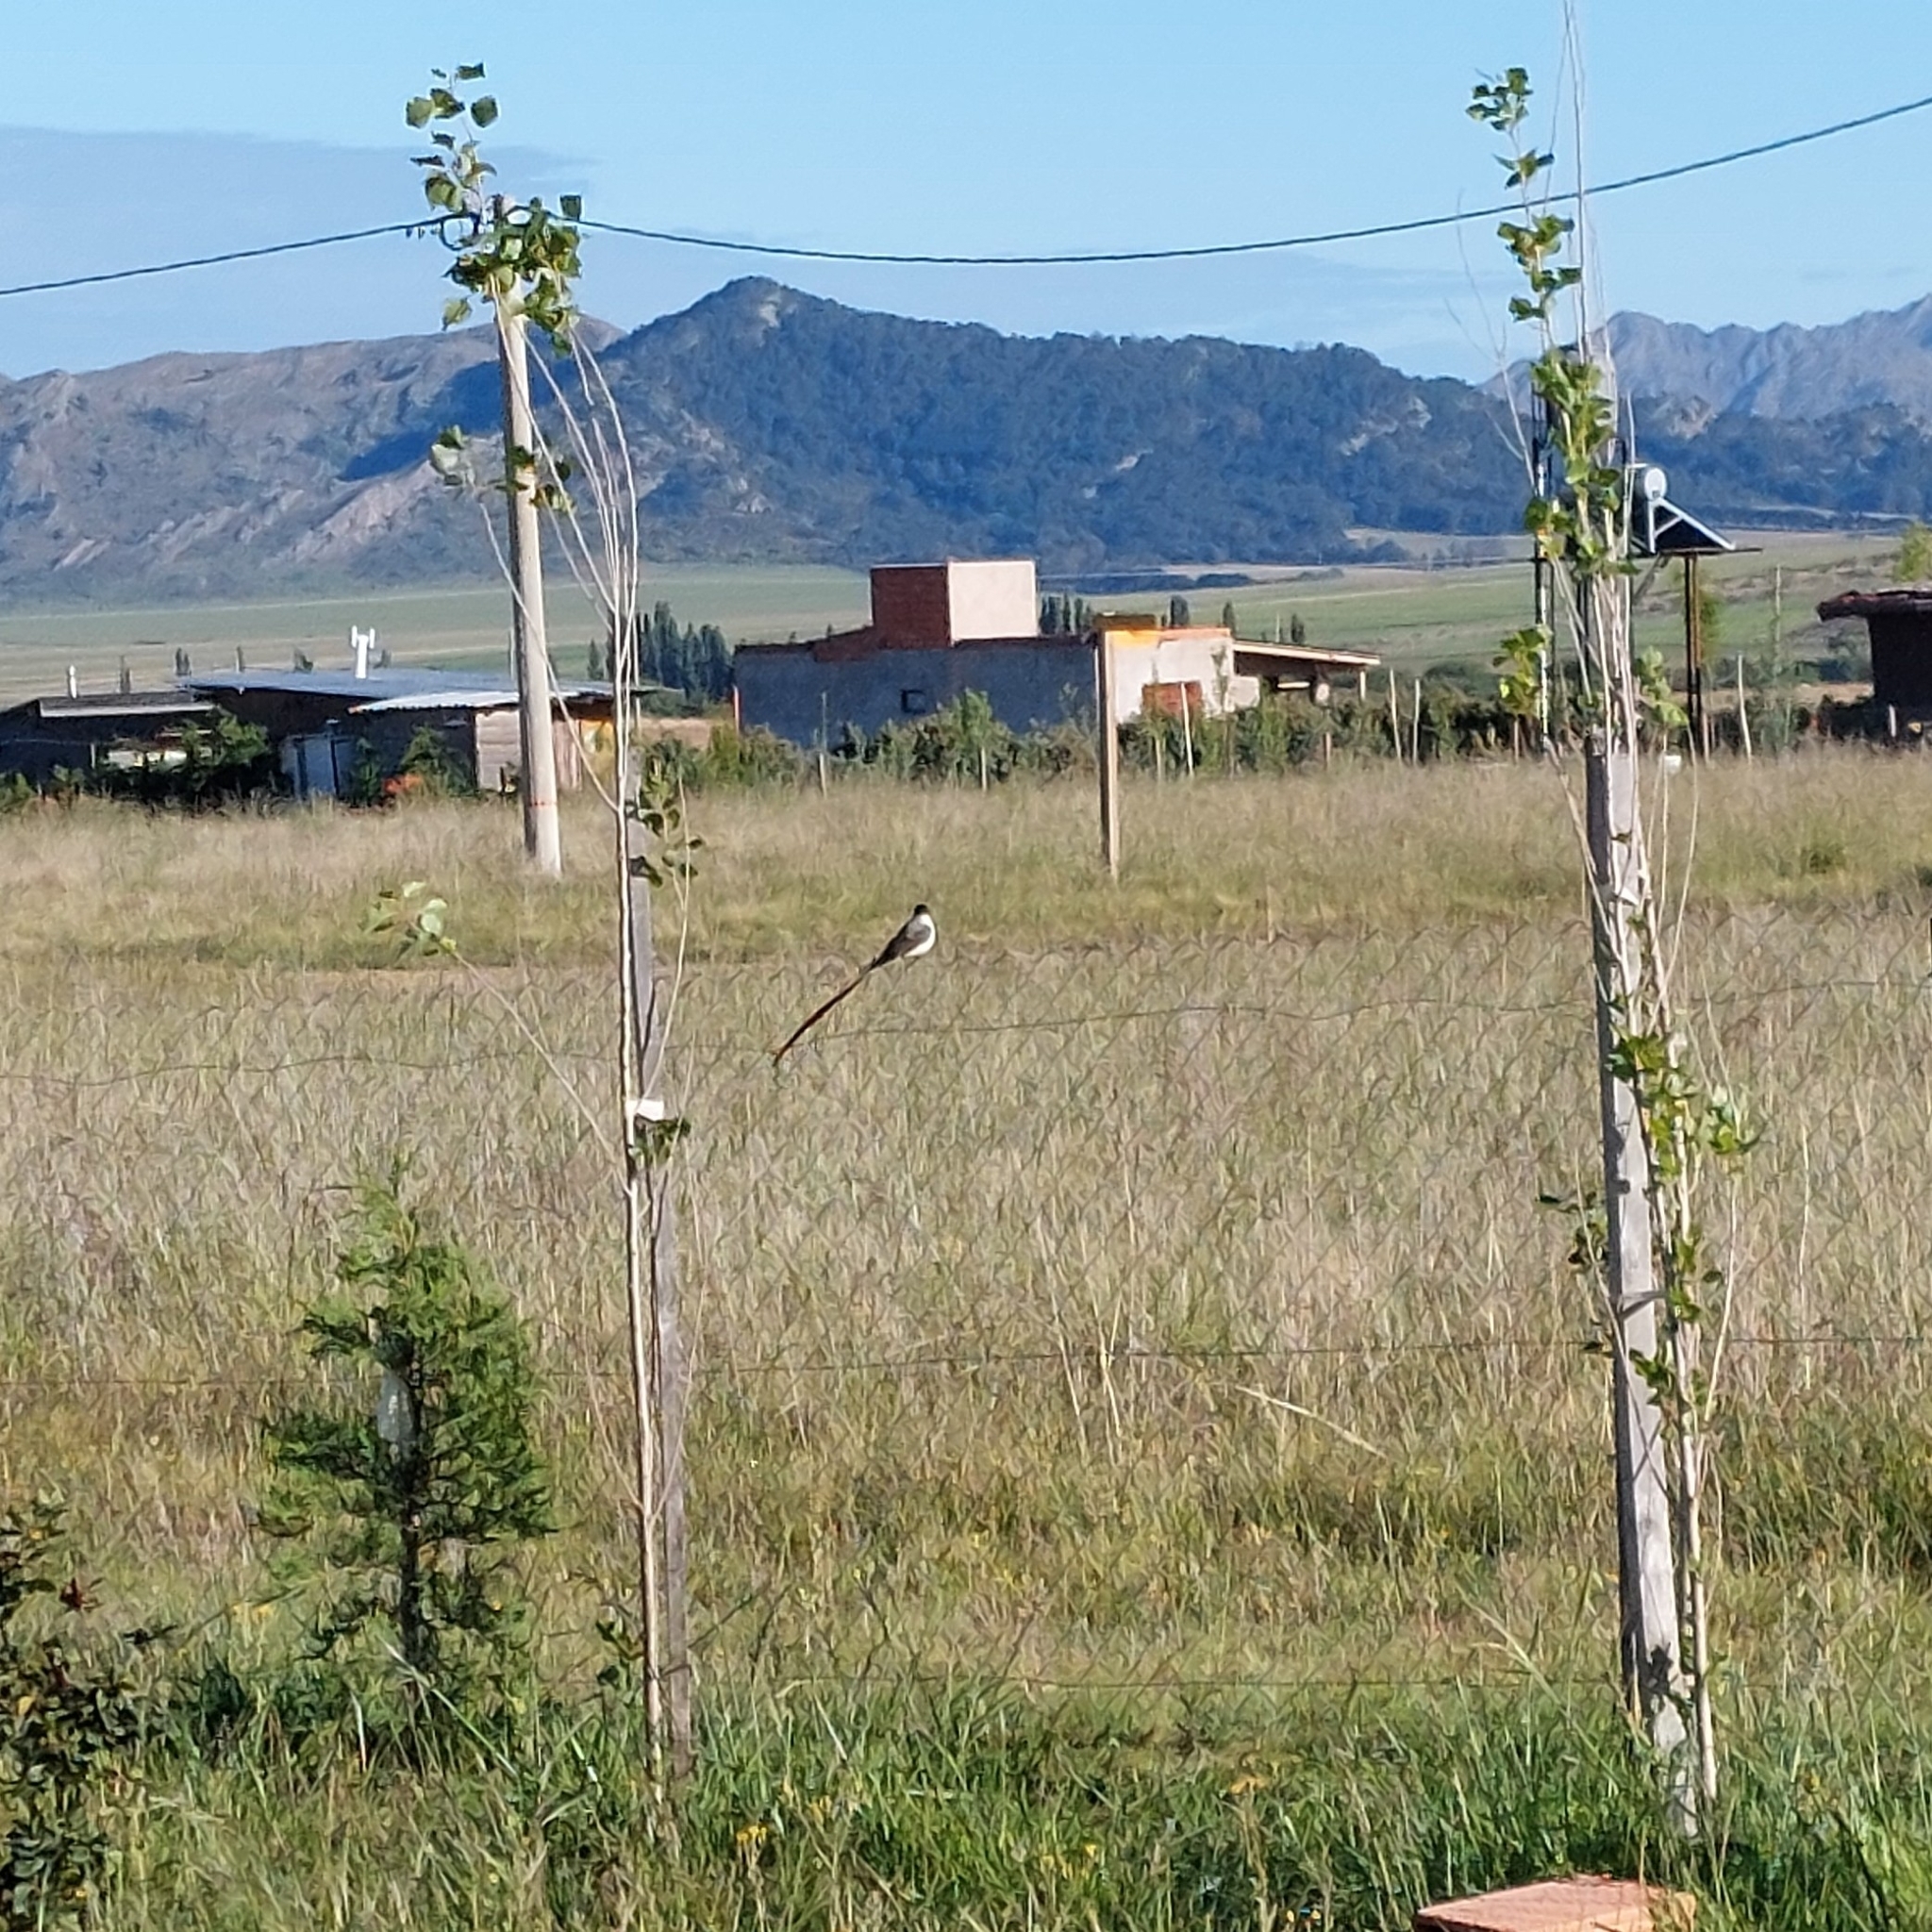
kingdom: Animalia
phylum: Chordata
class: Aves
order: Passeriformes
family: Tyrannidae
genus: Tyrannus
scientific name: Tyrannus savana
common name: Fork-tailed flycatcher
